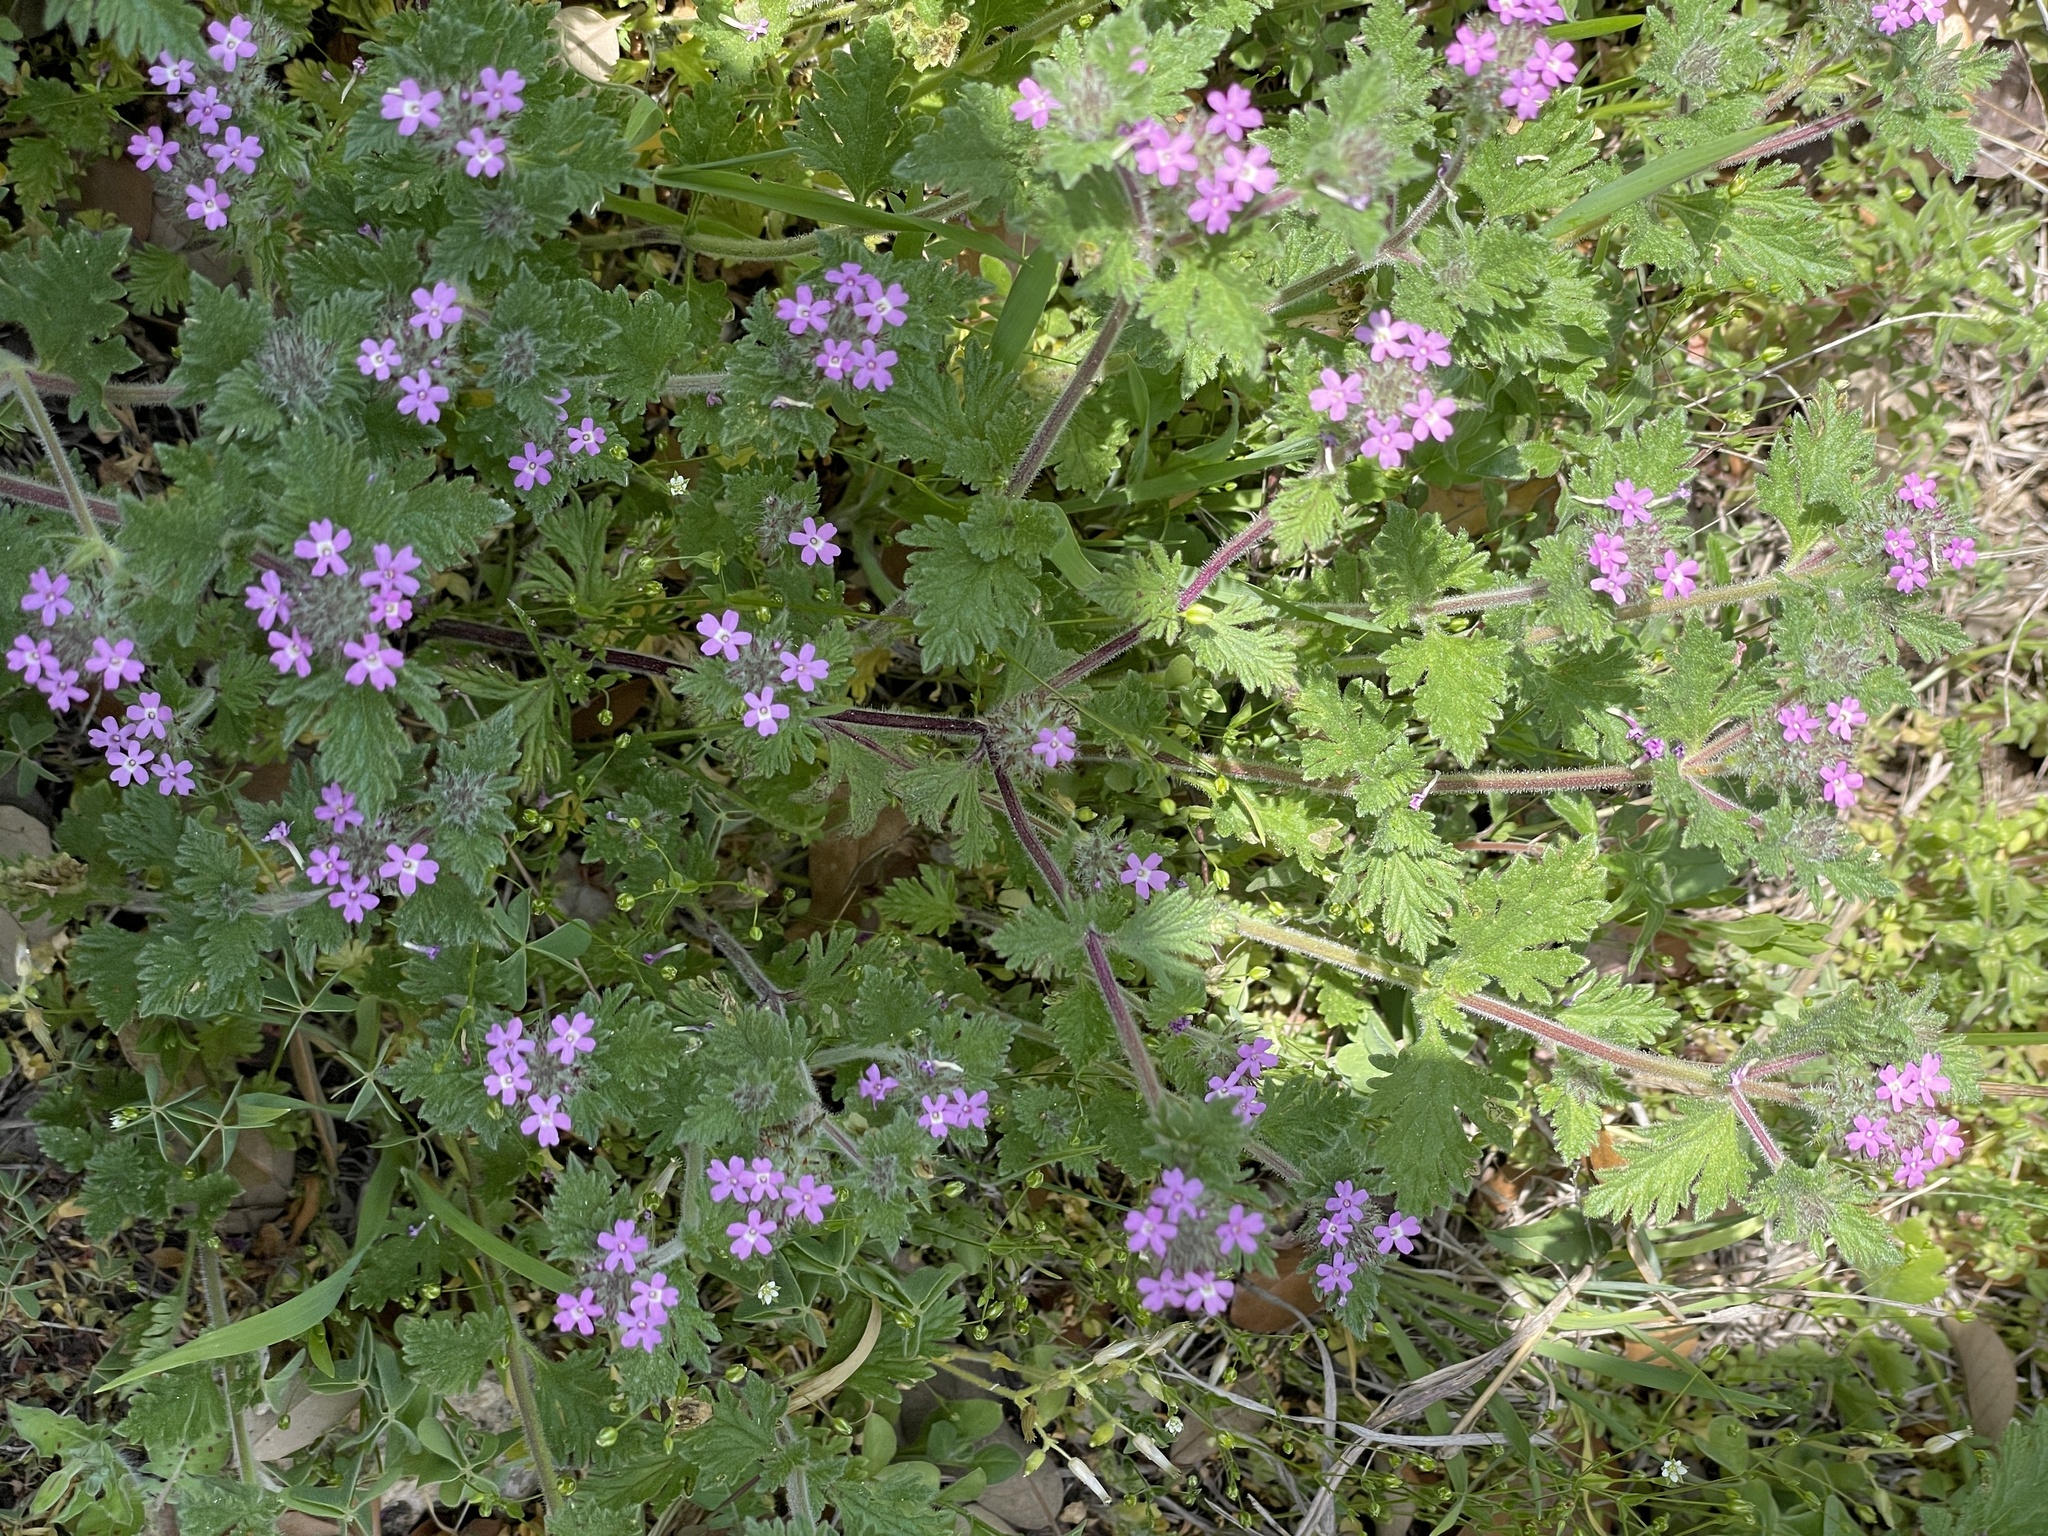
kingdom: Plantae
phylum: Tracheophyta
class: Magnoliopsida
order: Lamiales
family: Verbenaceae
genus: Verbena
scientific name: Verbena pumila
